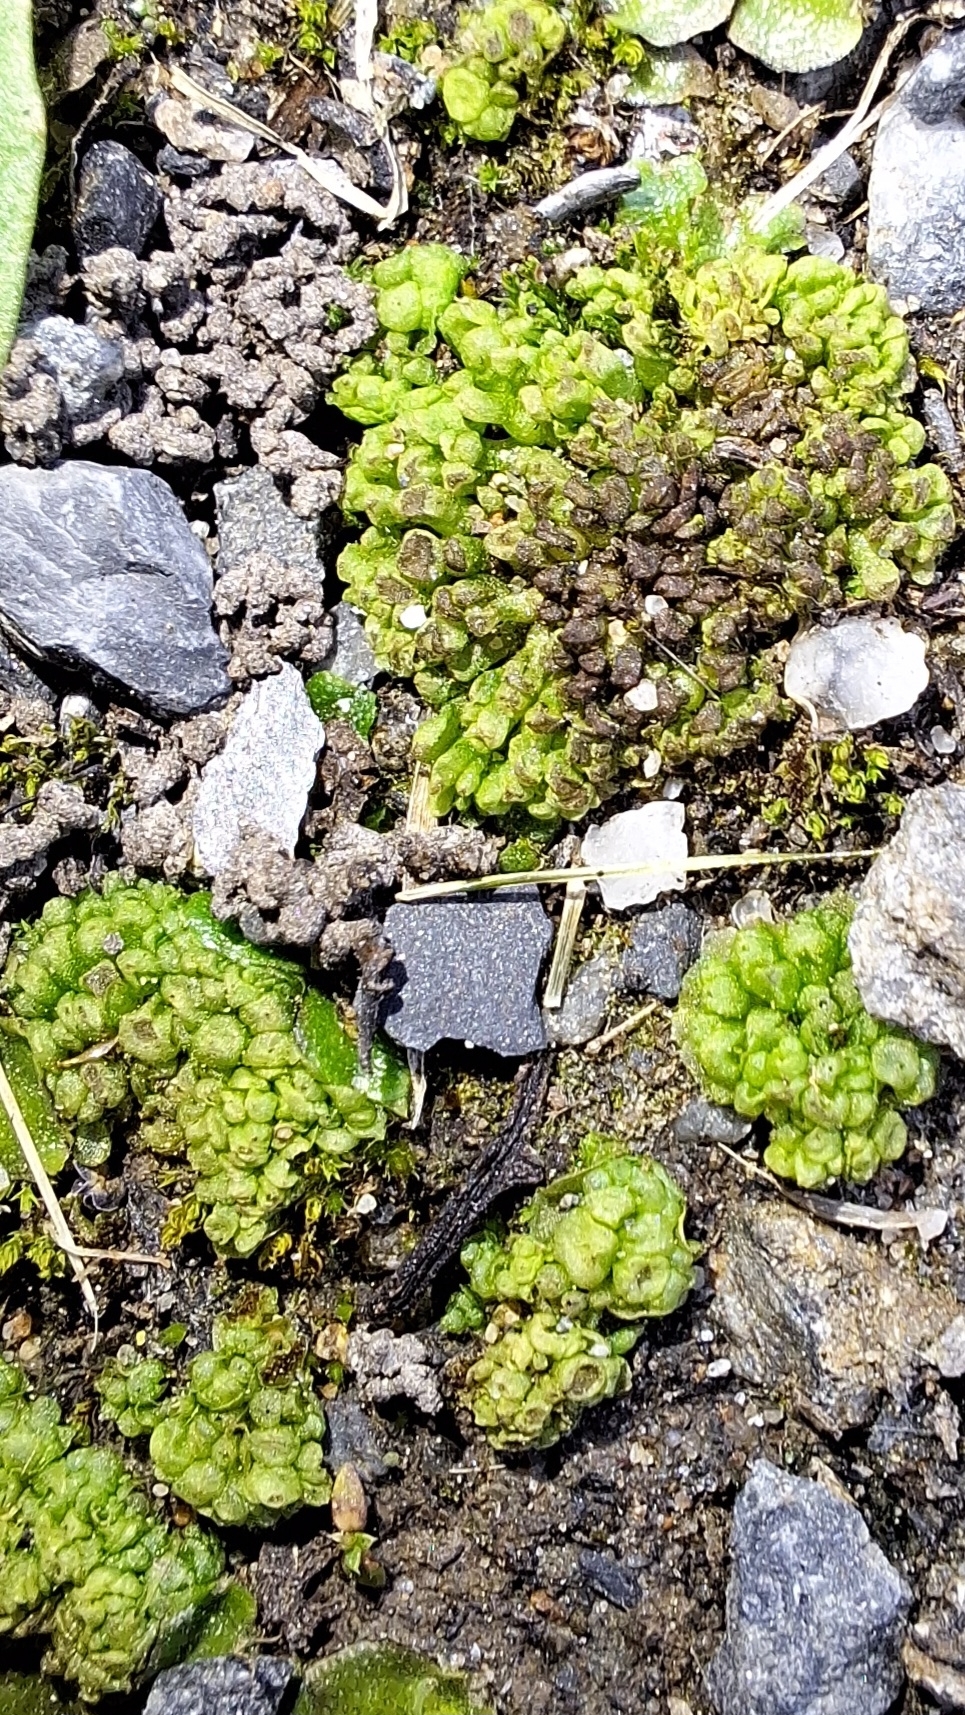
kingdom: Plantae
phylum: Marchantiophyta
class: Marchantiopsida
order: Sphaerocarpales
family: Sphaerocarpaceae
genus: Sphaerocarpos
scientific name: Sphaerocarpos texanus
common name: Texas balloonwort
